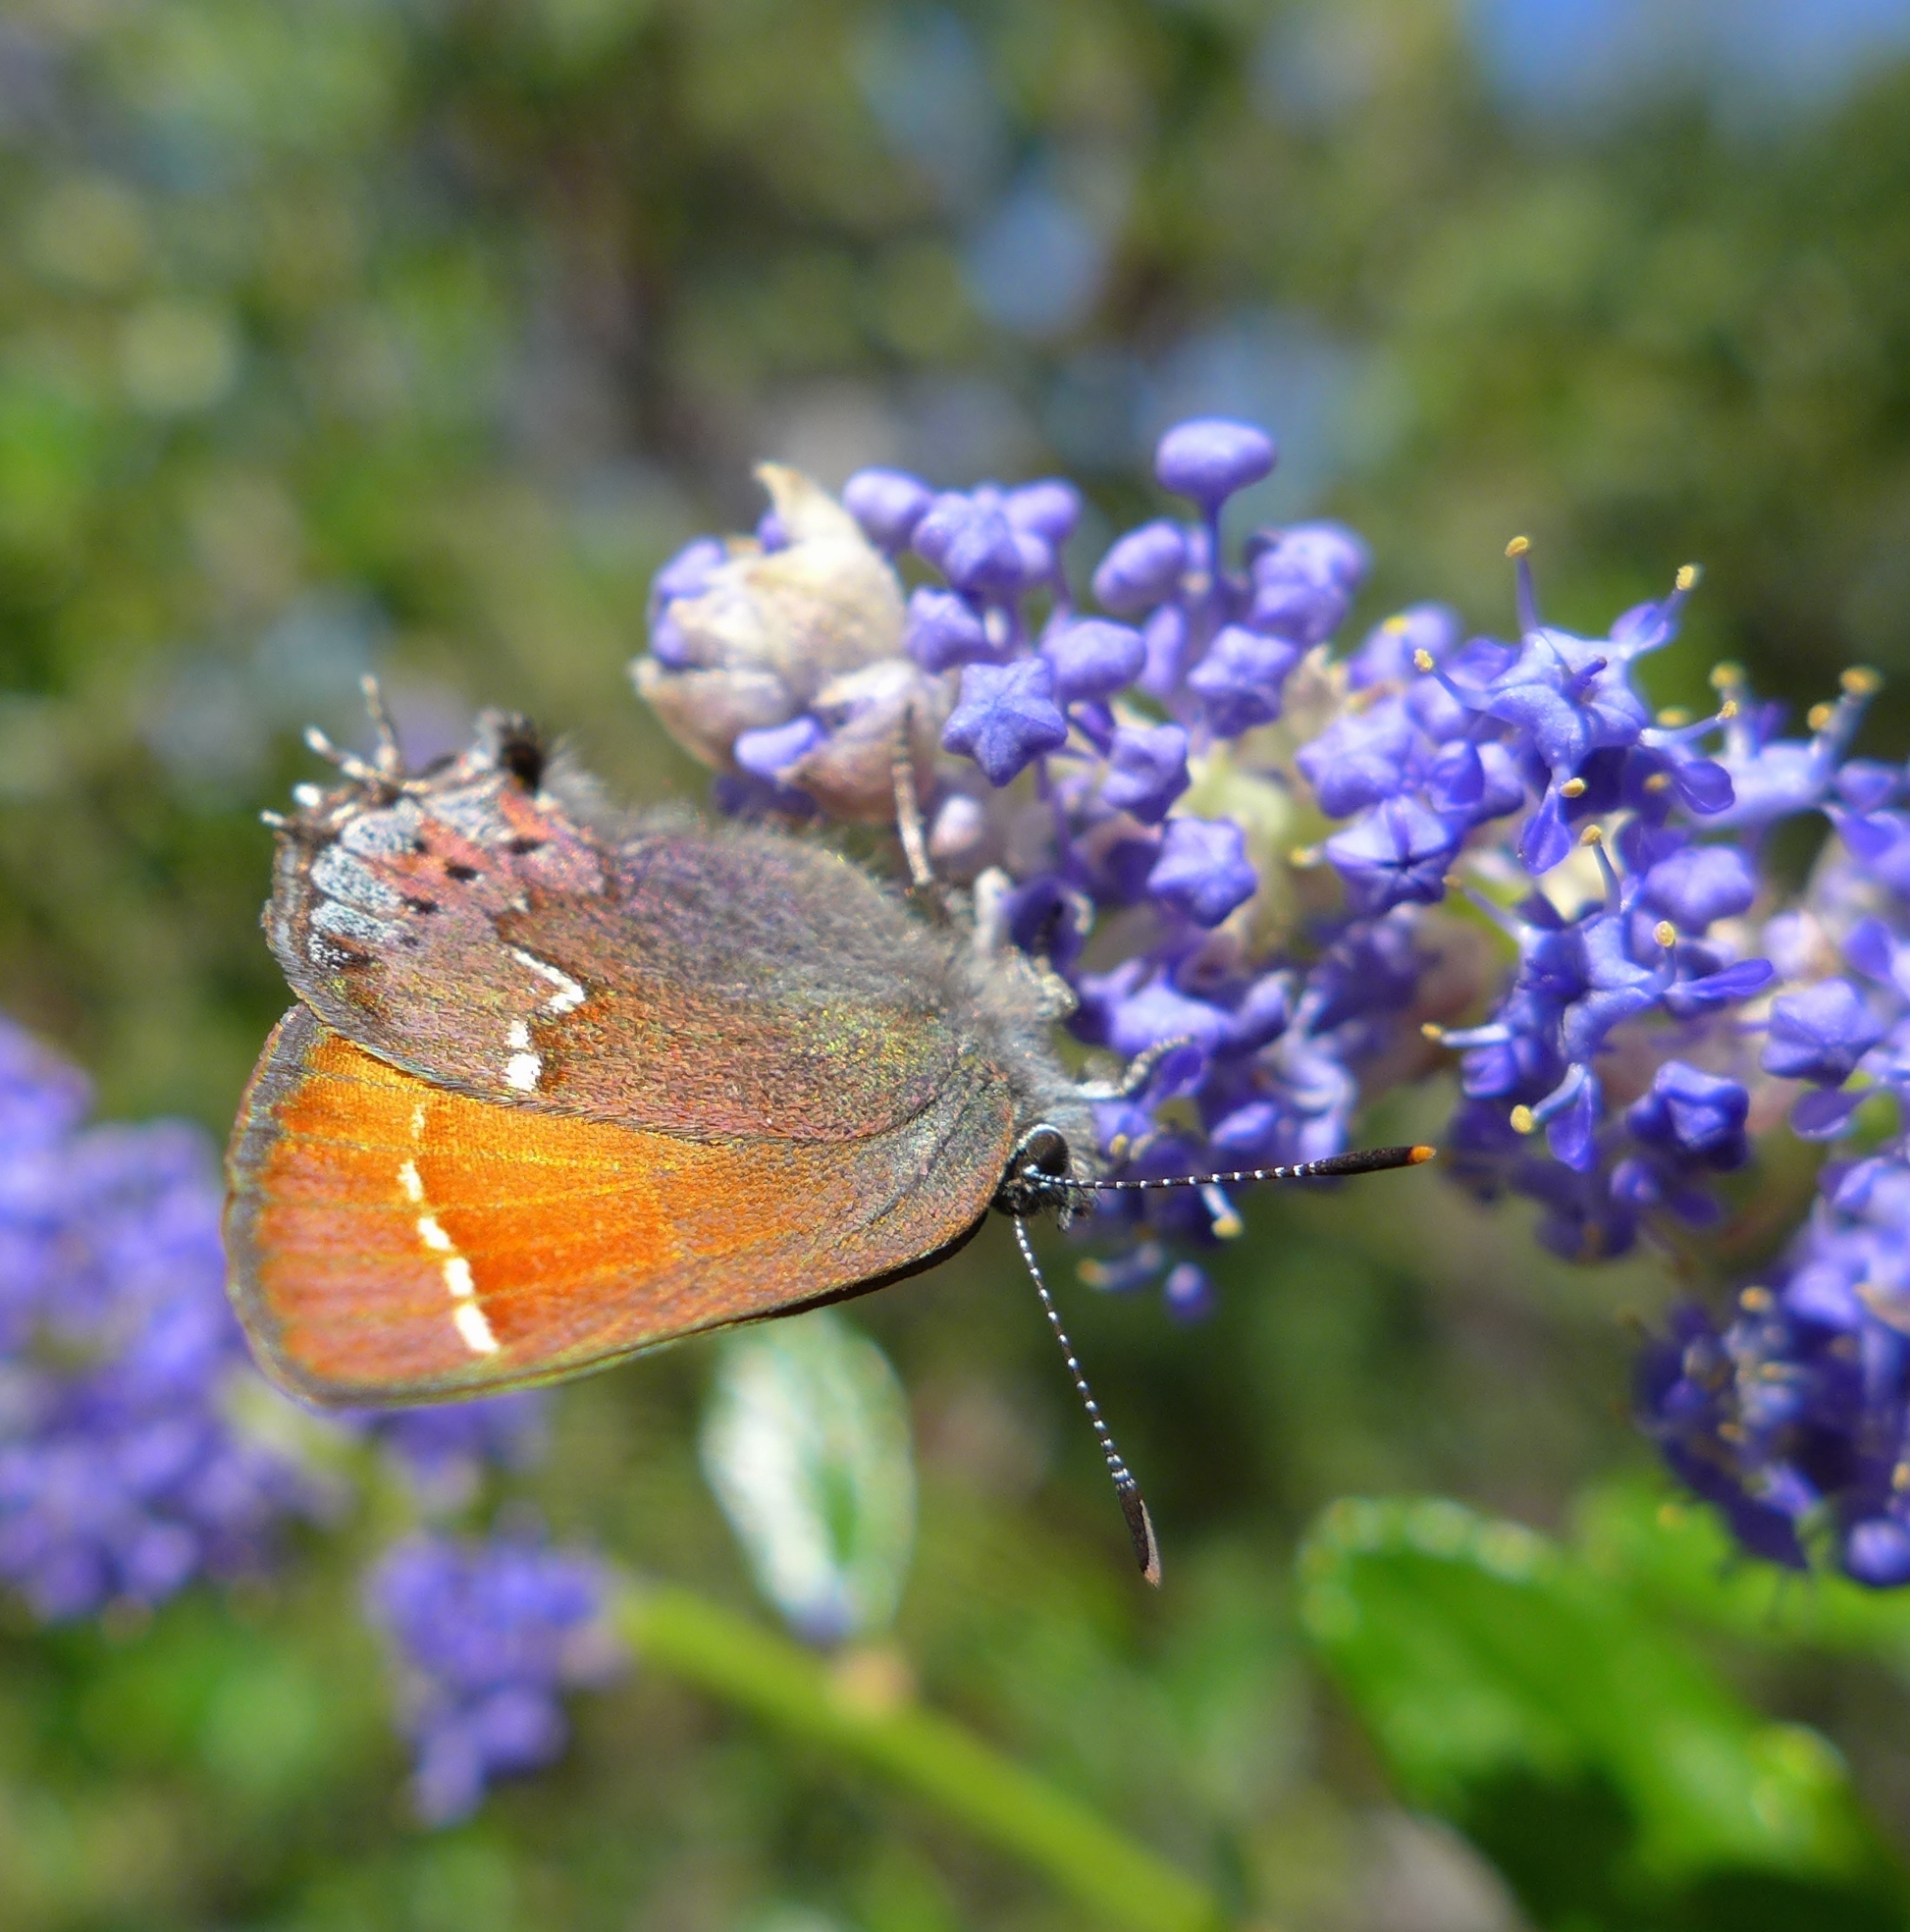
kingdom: Animalia
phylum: Arthropoda
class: Insecta
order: Lepidoptera
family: Lycaenidae
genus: Callophrys
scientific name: Callophrys muiri
